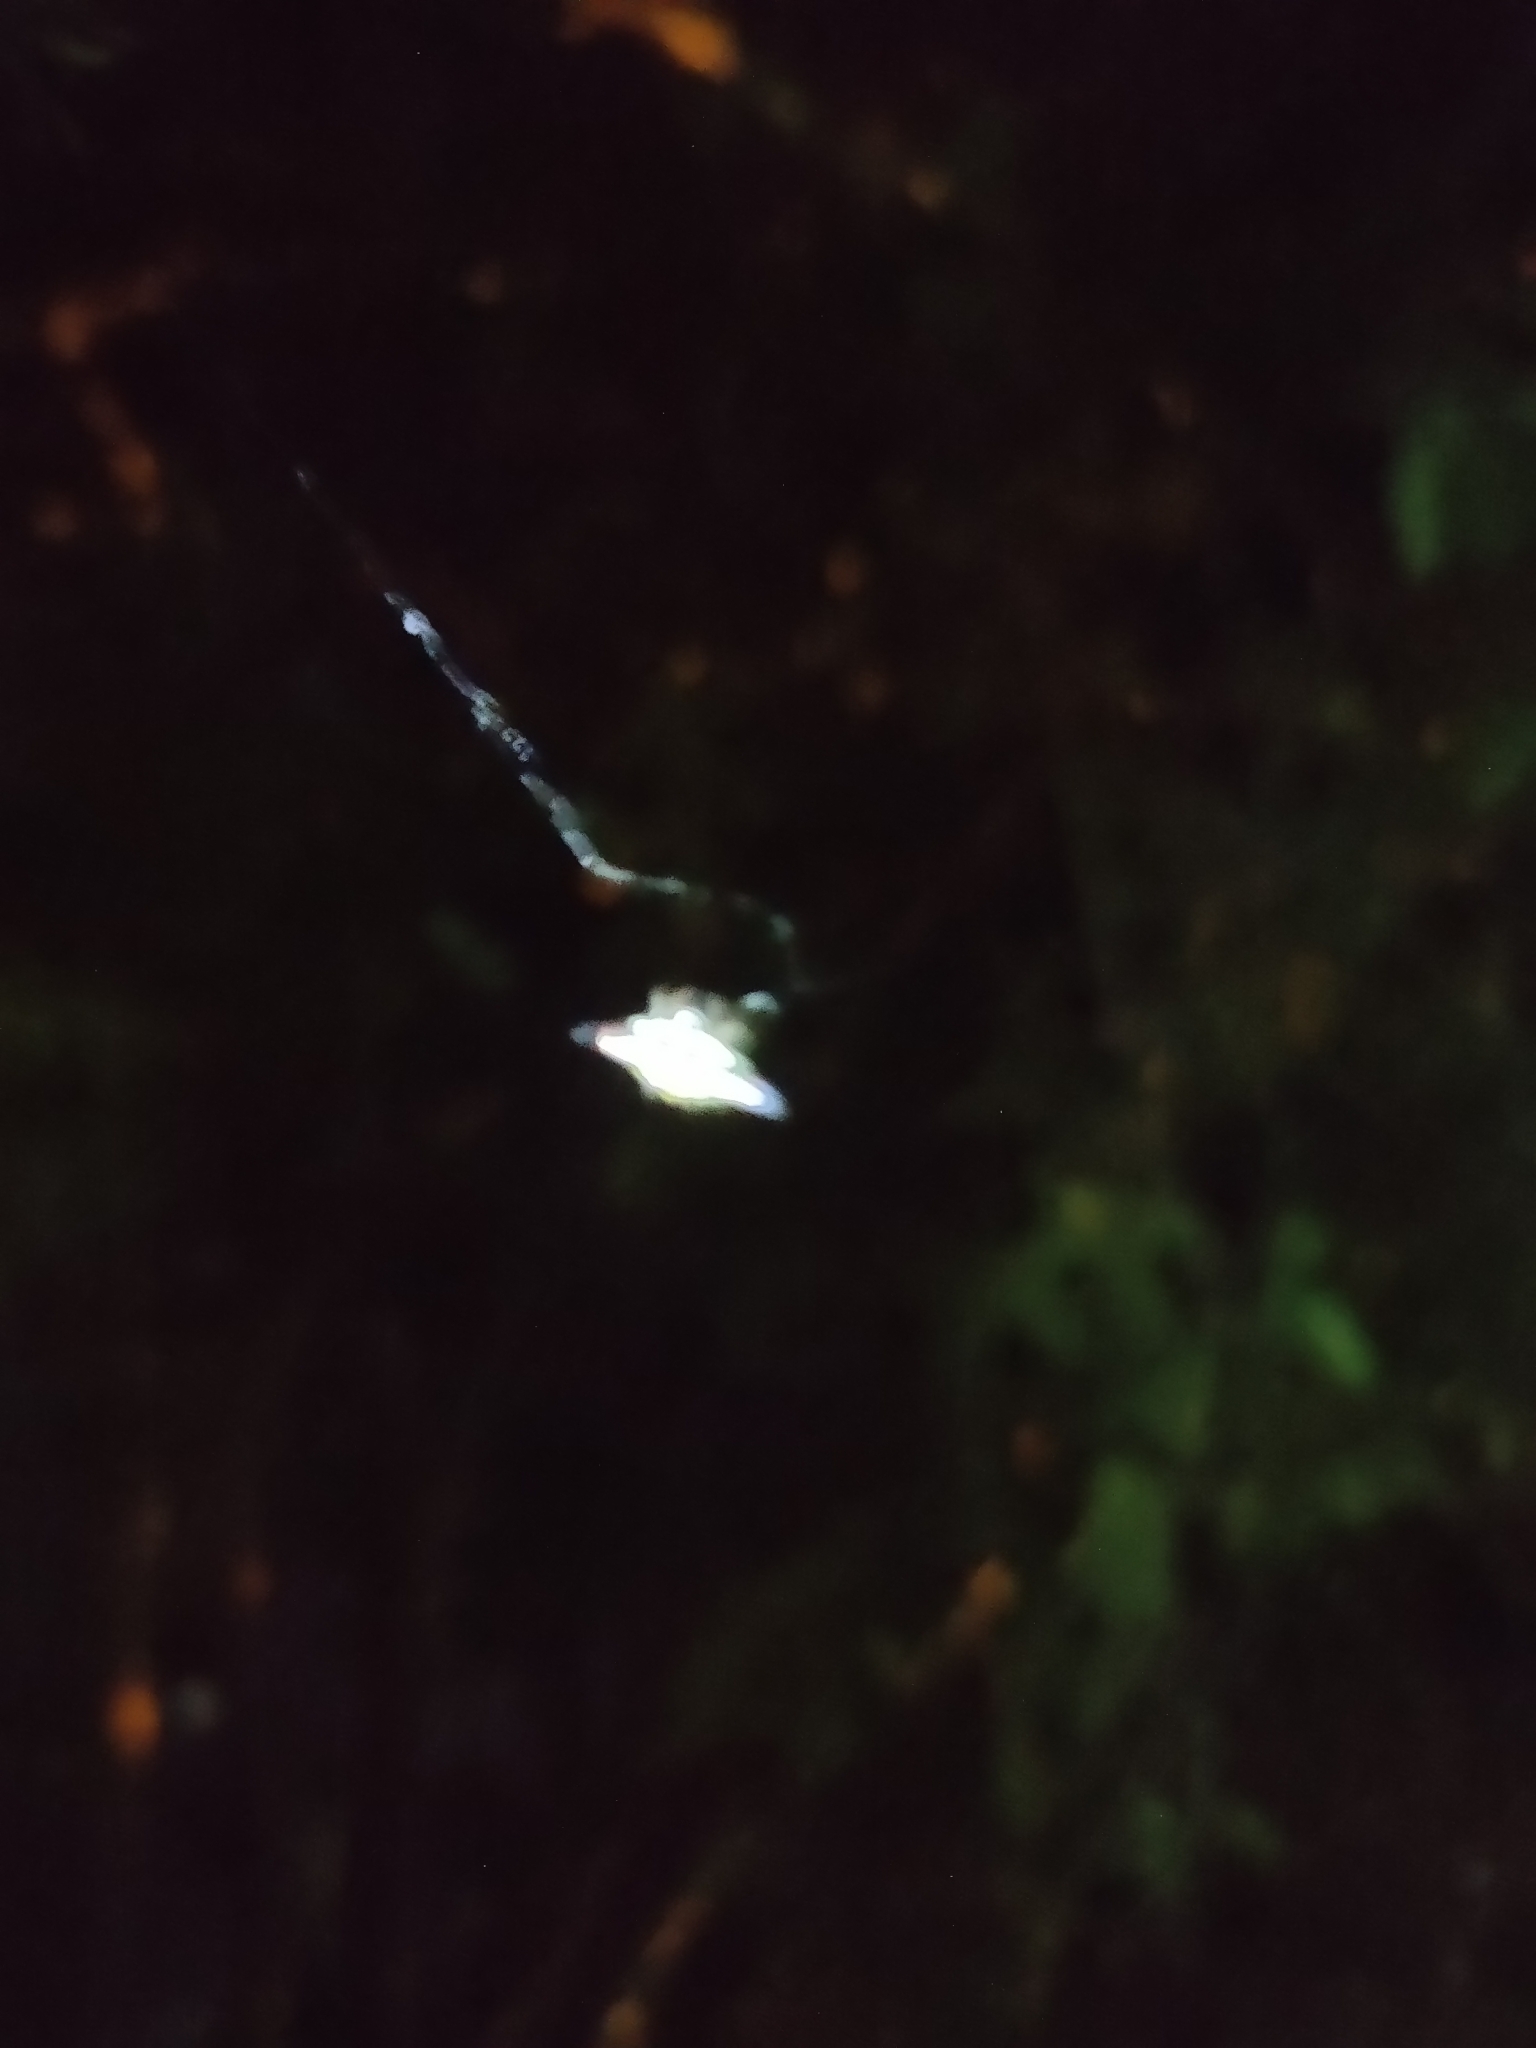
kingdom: Animalia
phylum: Arthropoda
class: Arachnida
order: Araneae
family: Araneidae
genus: Gasteracantha
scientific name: Gasteracantha geminata
